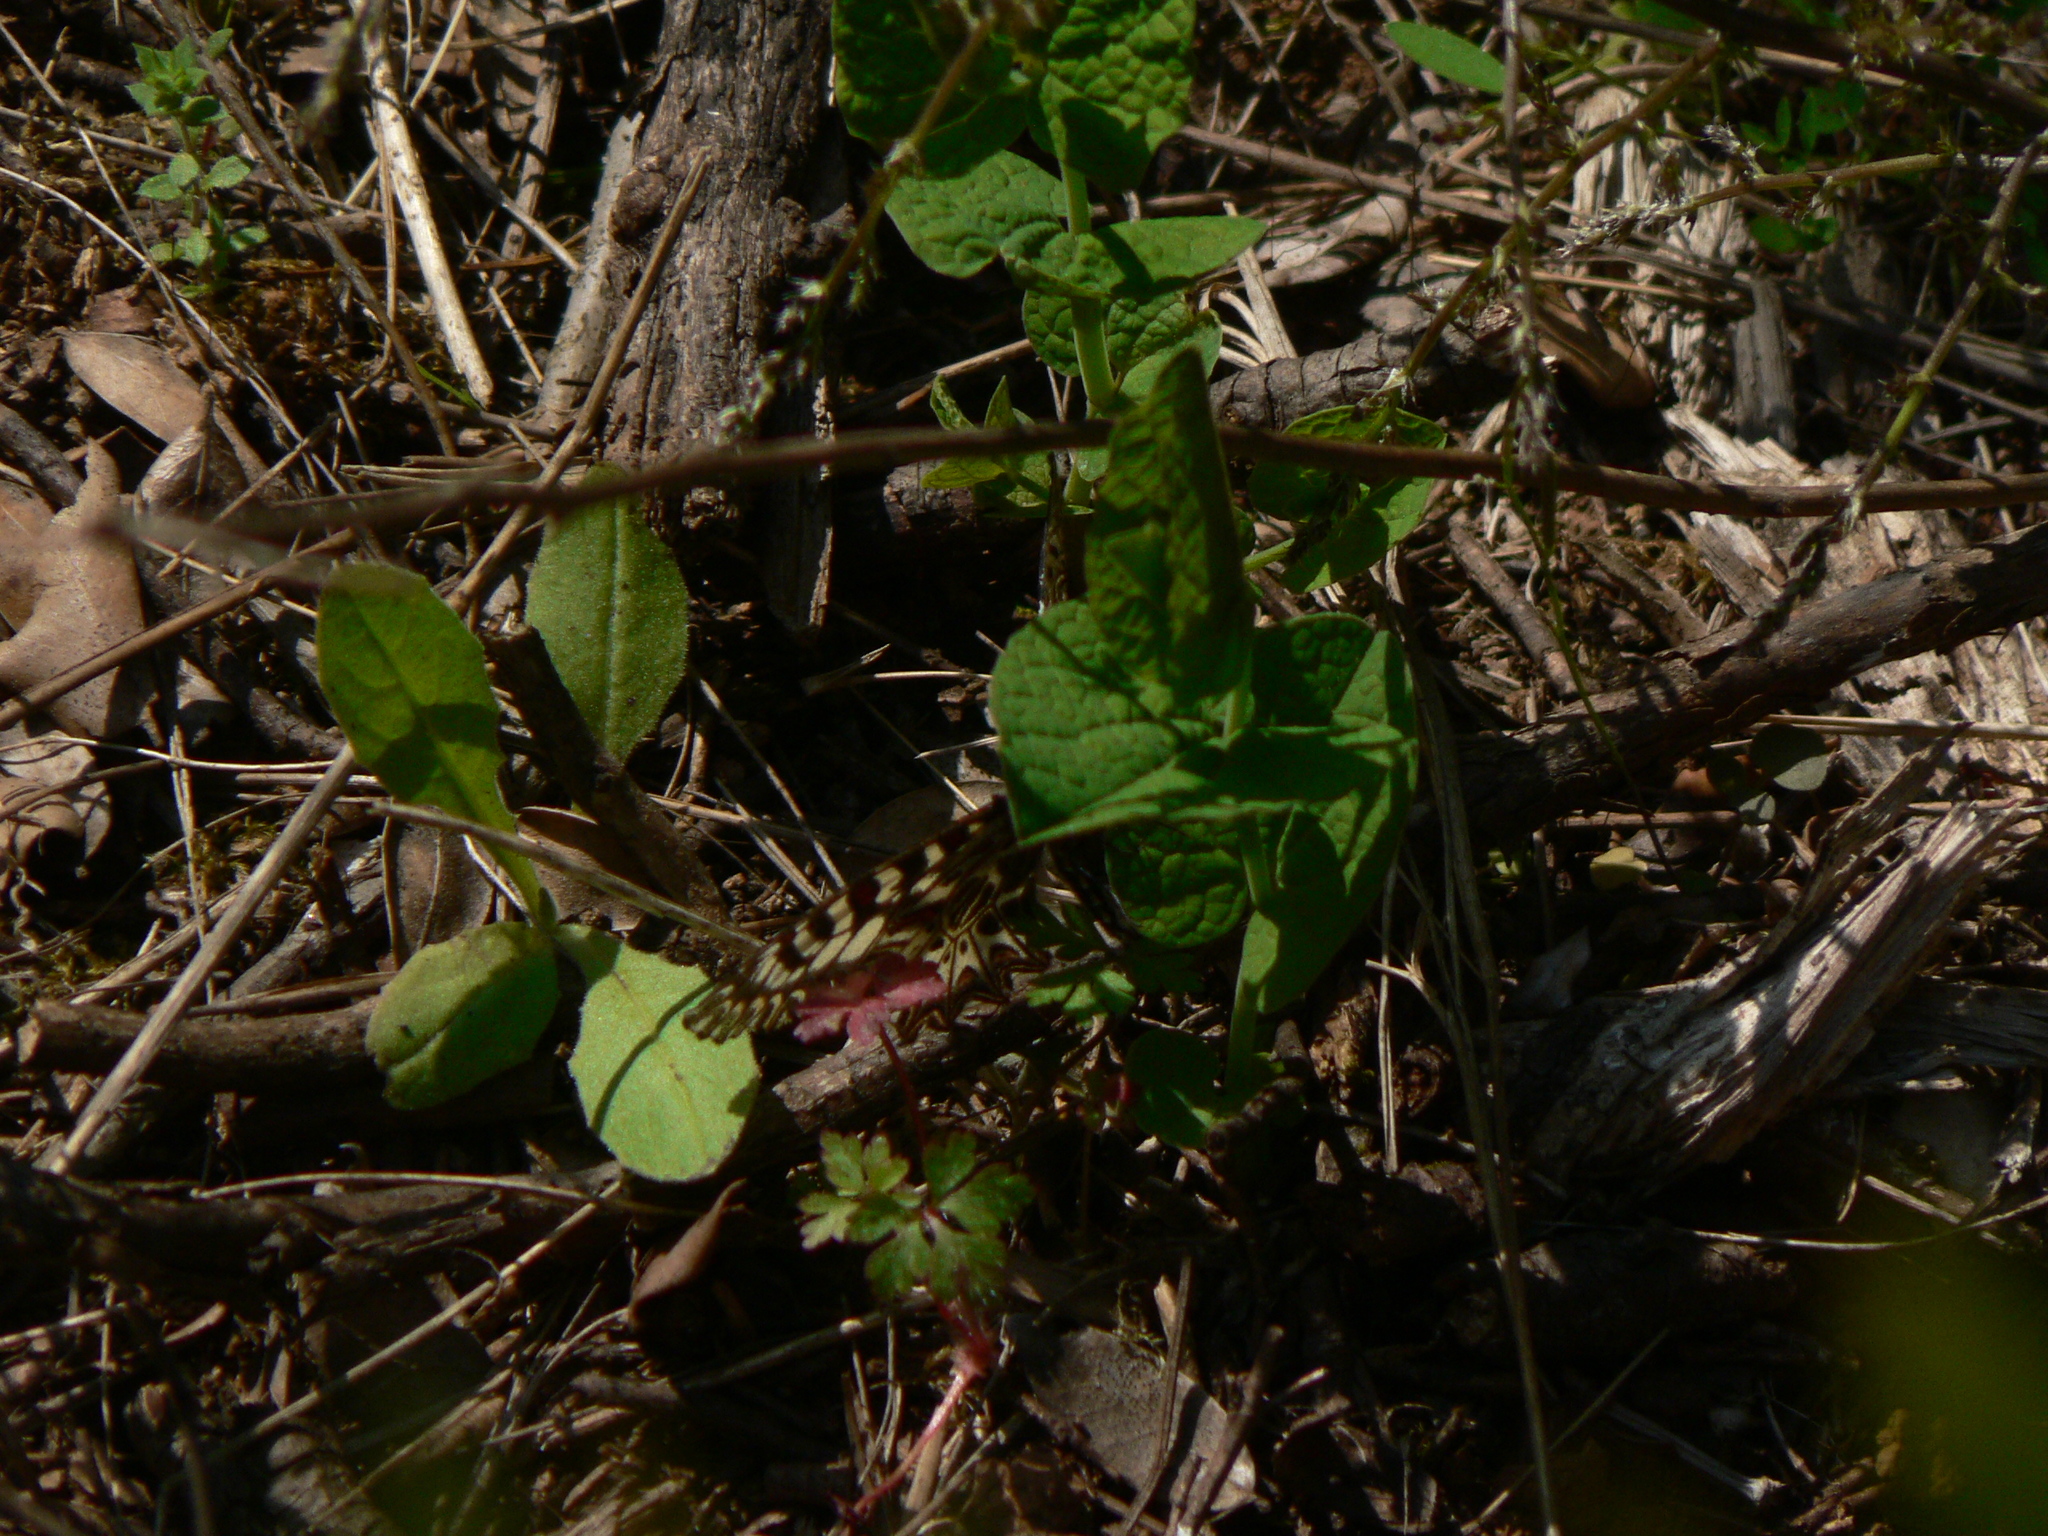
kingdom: Animalia
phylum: Arthropoda
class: Insecta
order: Lepidoptera
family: Papilionidae
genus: Zerynthia
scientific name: Zerynthia polyxena
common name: Southern festoon
